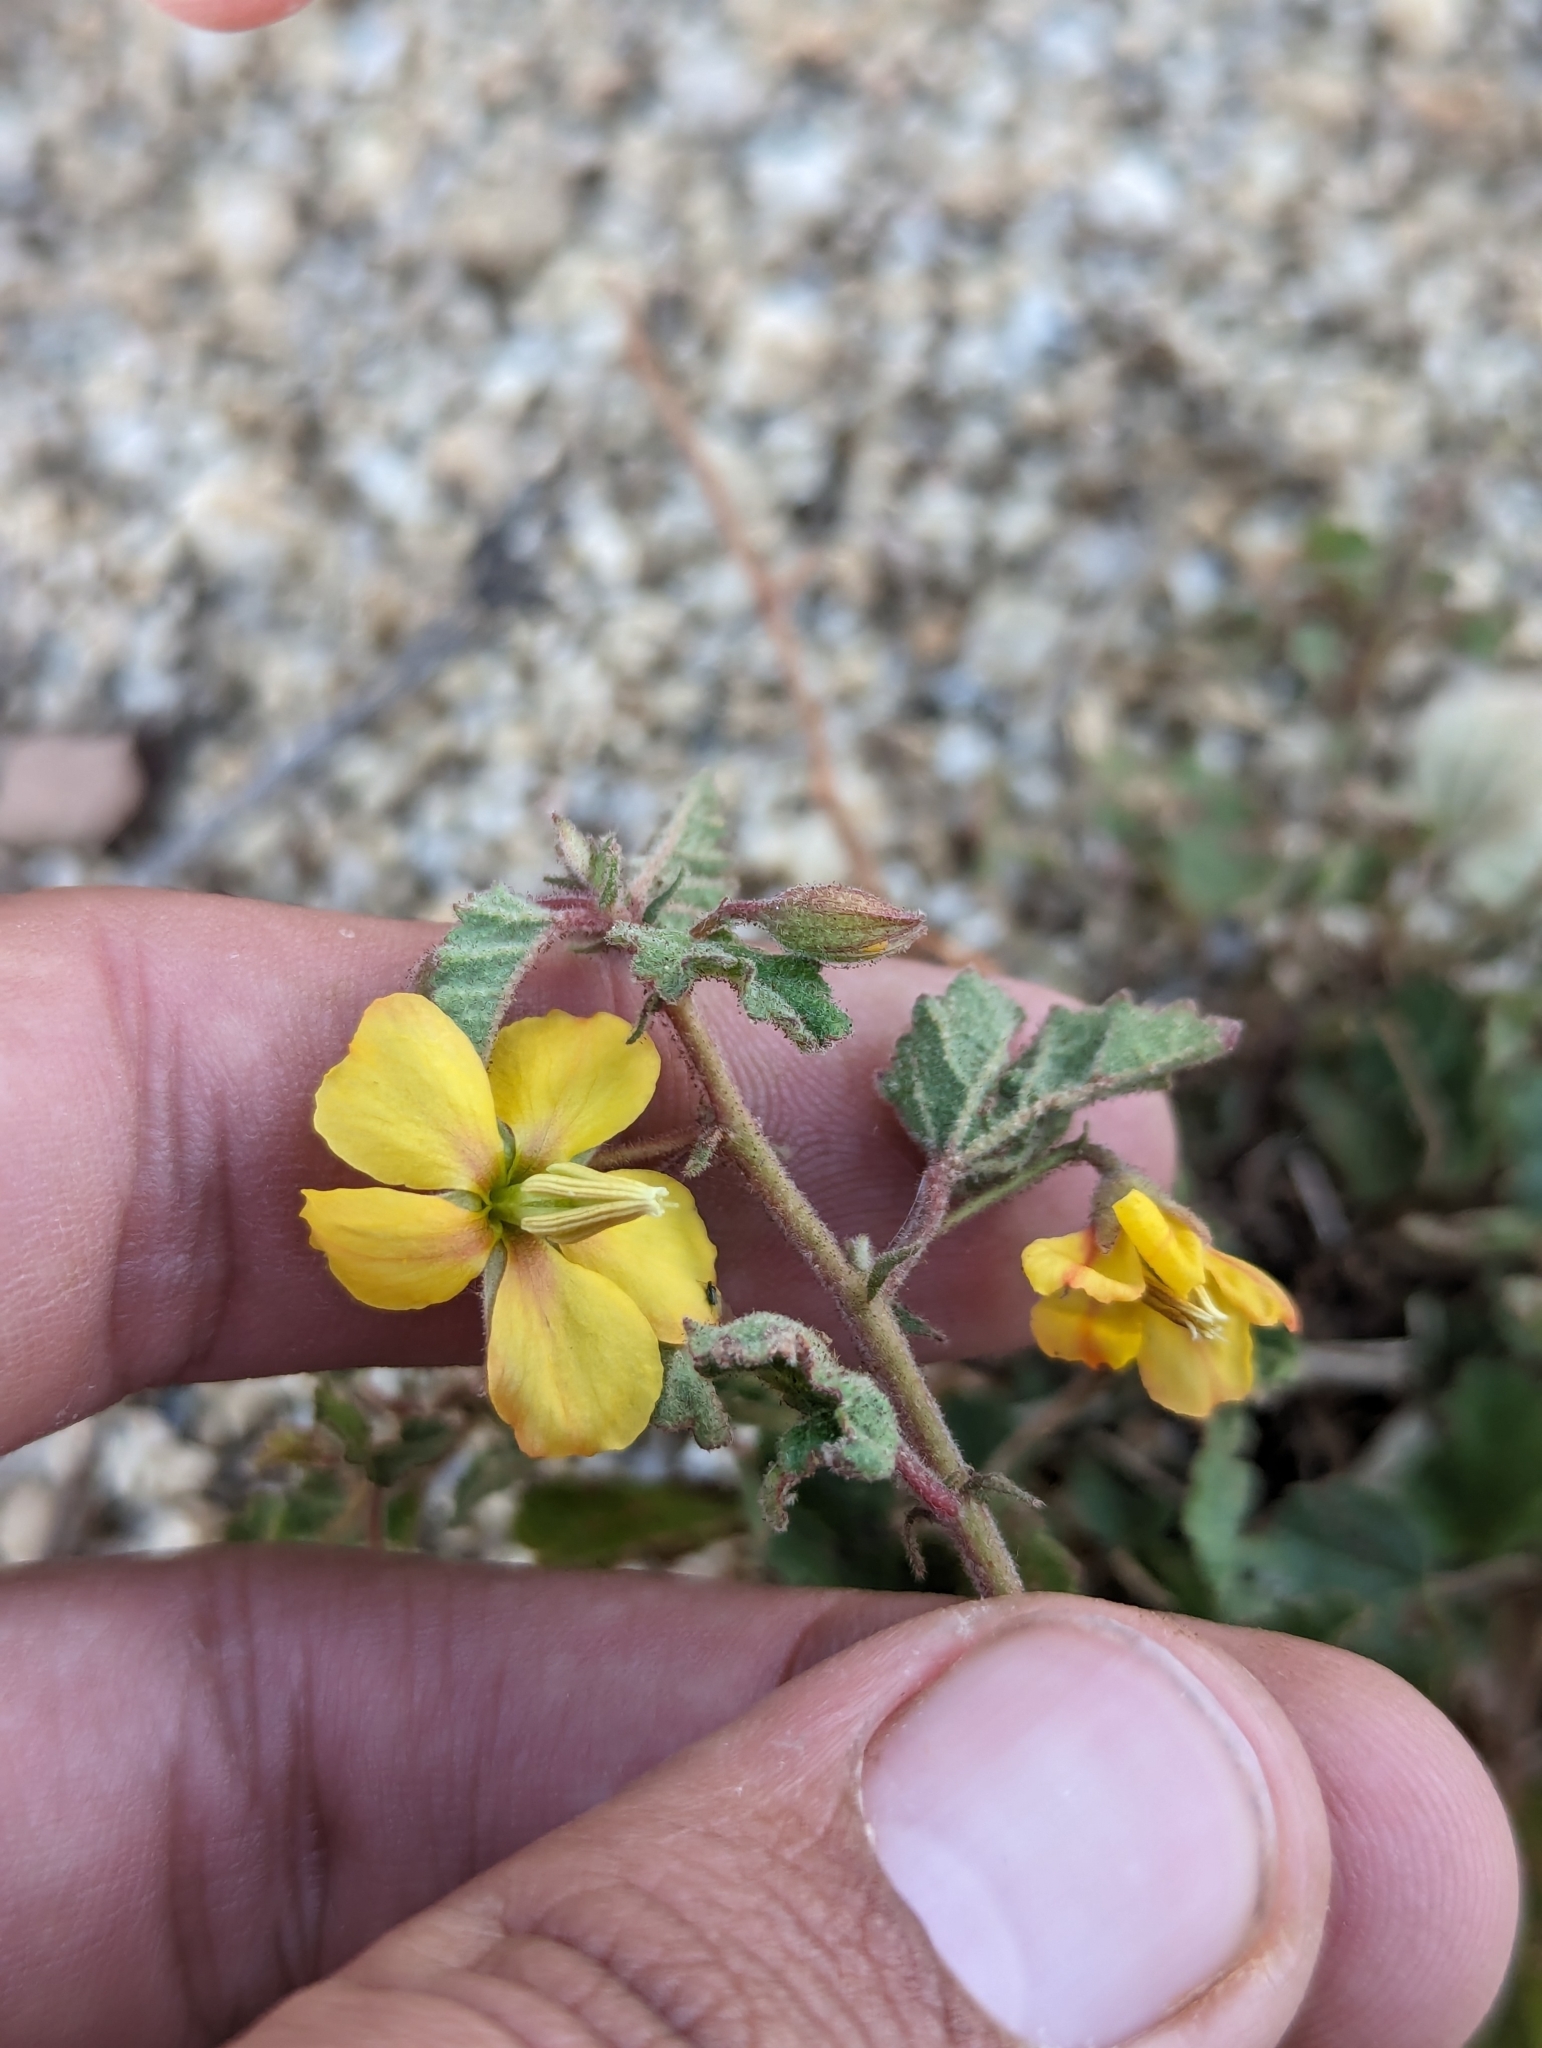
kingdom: Plantae
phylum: Tracheophyta
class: Magnoliopsida
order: Malvales
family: Malvaceae
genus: Hermannia
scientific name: Hermannia palmeri
